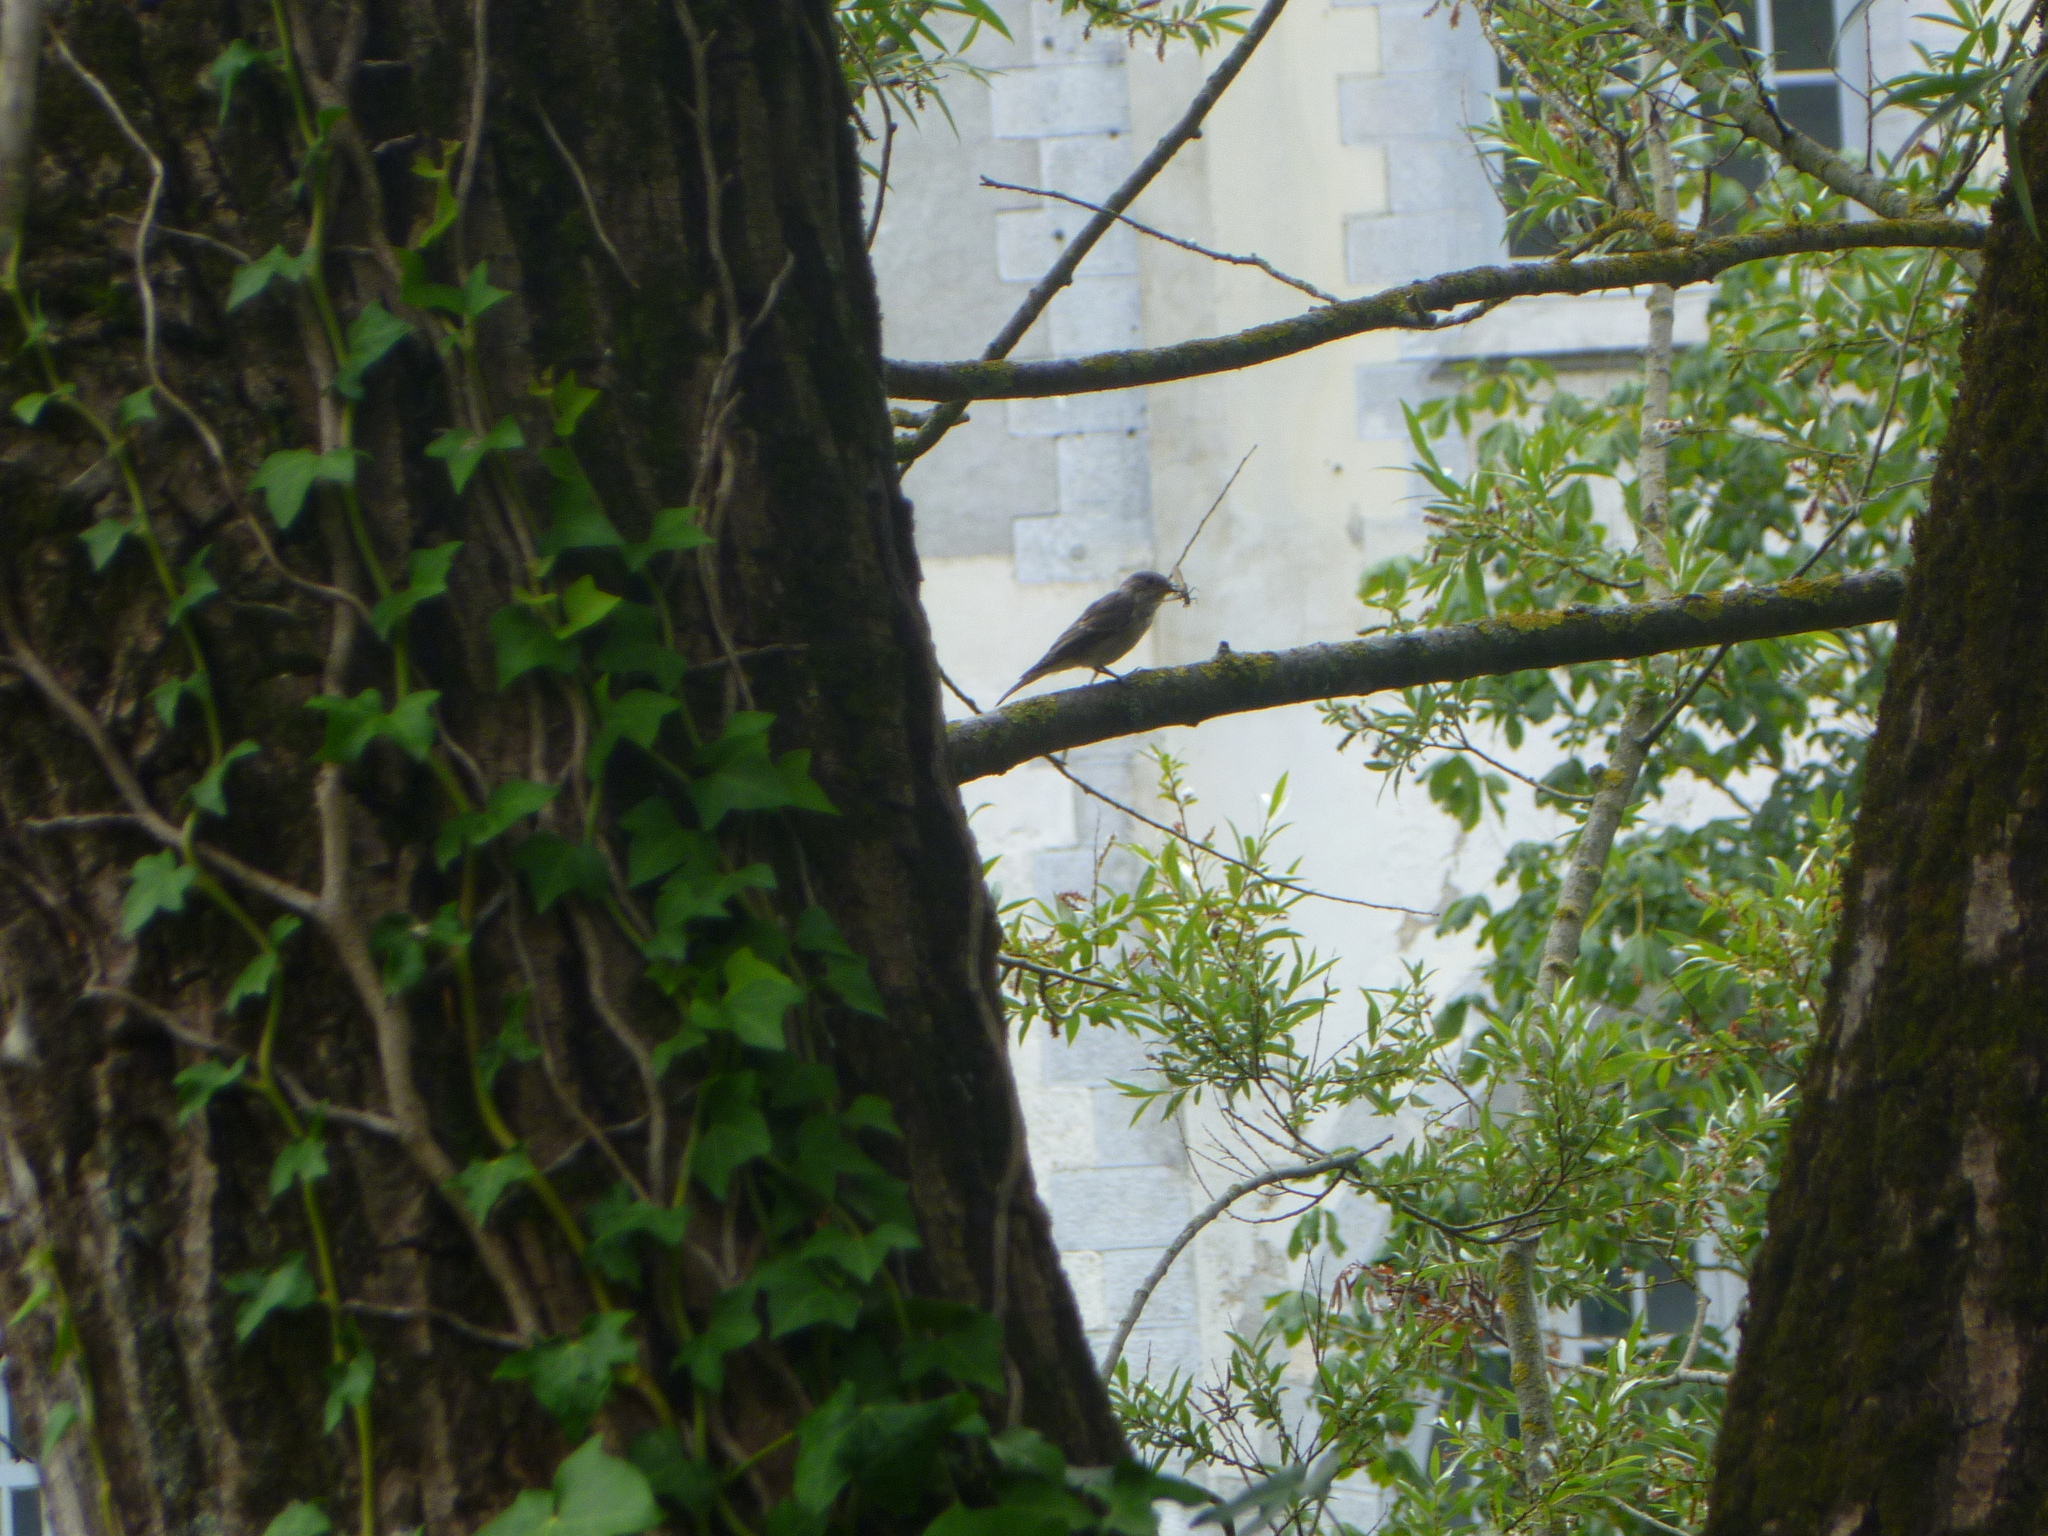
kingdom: Animalia
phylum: Chordata
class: Aves
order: Passeriformes
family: Muscicapidae
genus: Muscicapa
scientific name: Muscicapa striata
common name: Spotted flycatcher
